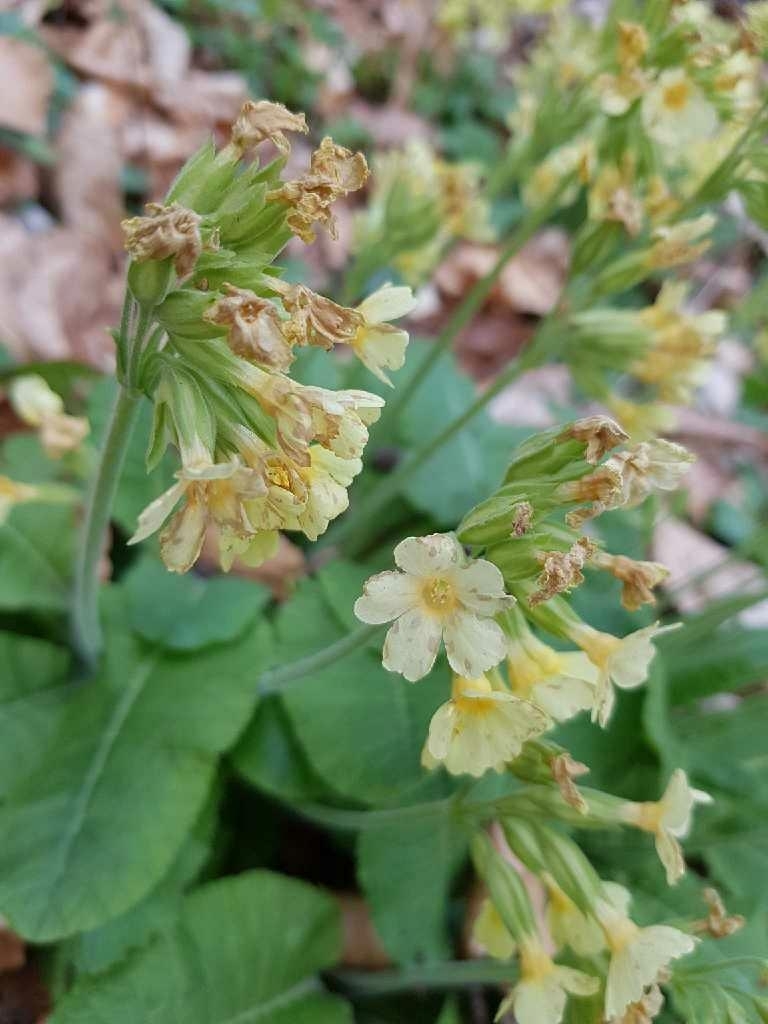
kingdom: Plantae
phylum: Tracheophyta
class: Magnoliopsida
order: Ericales
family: Primulaceae
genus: Primula
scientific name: Primula elatior
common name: Oxlip
